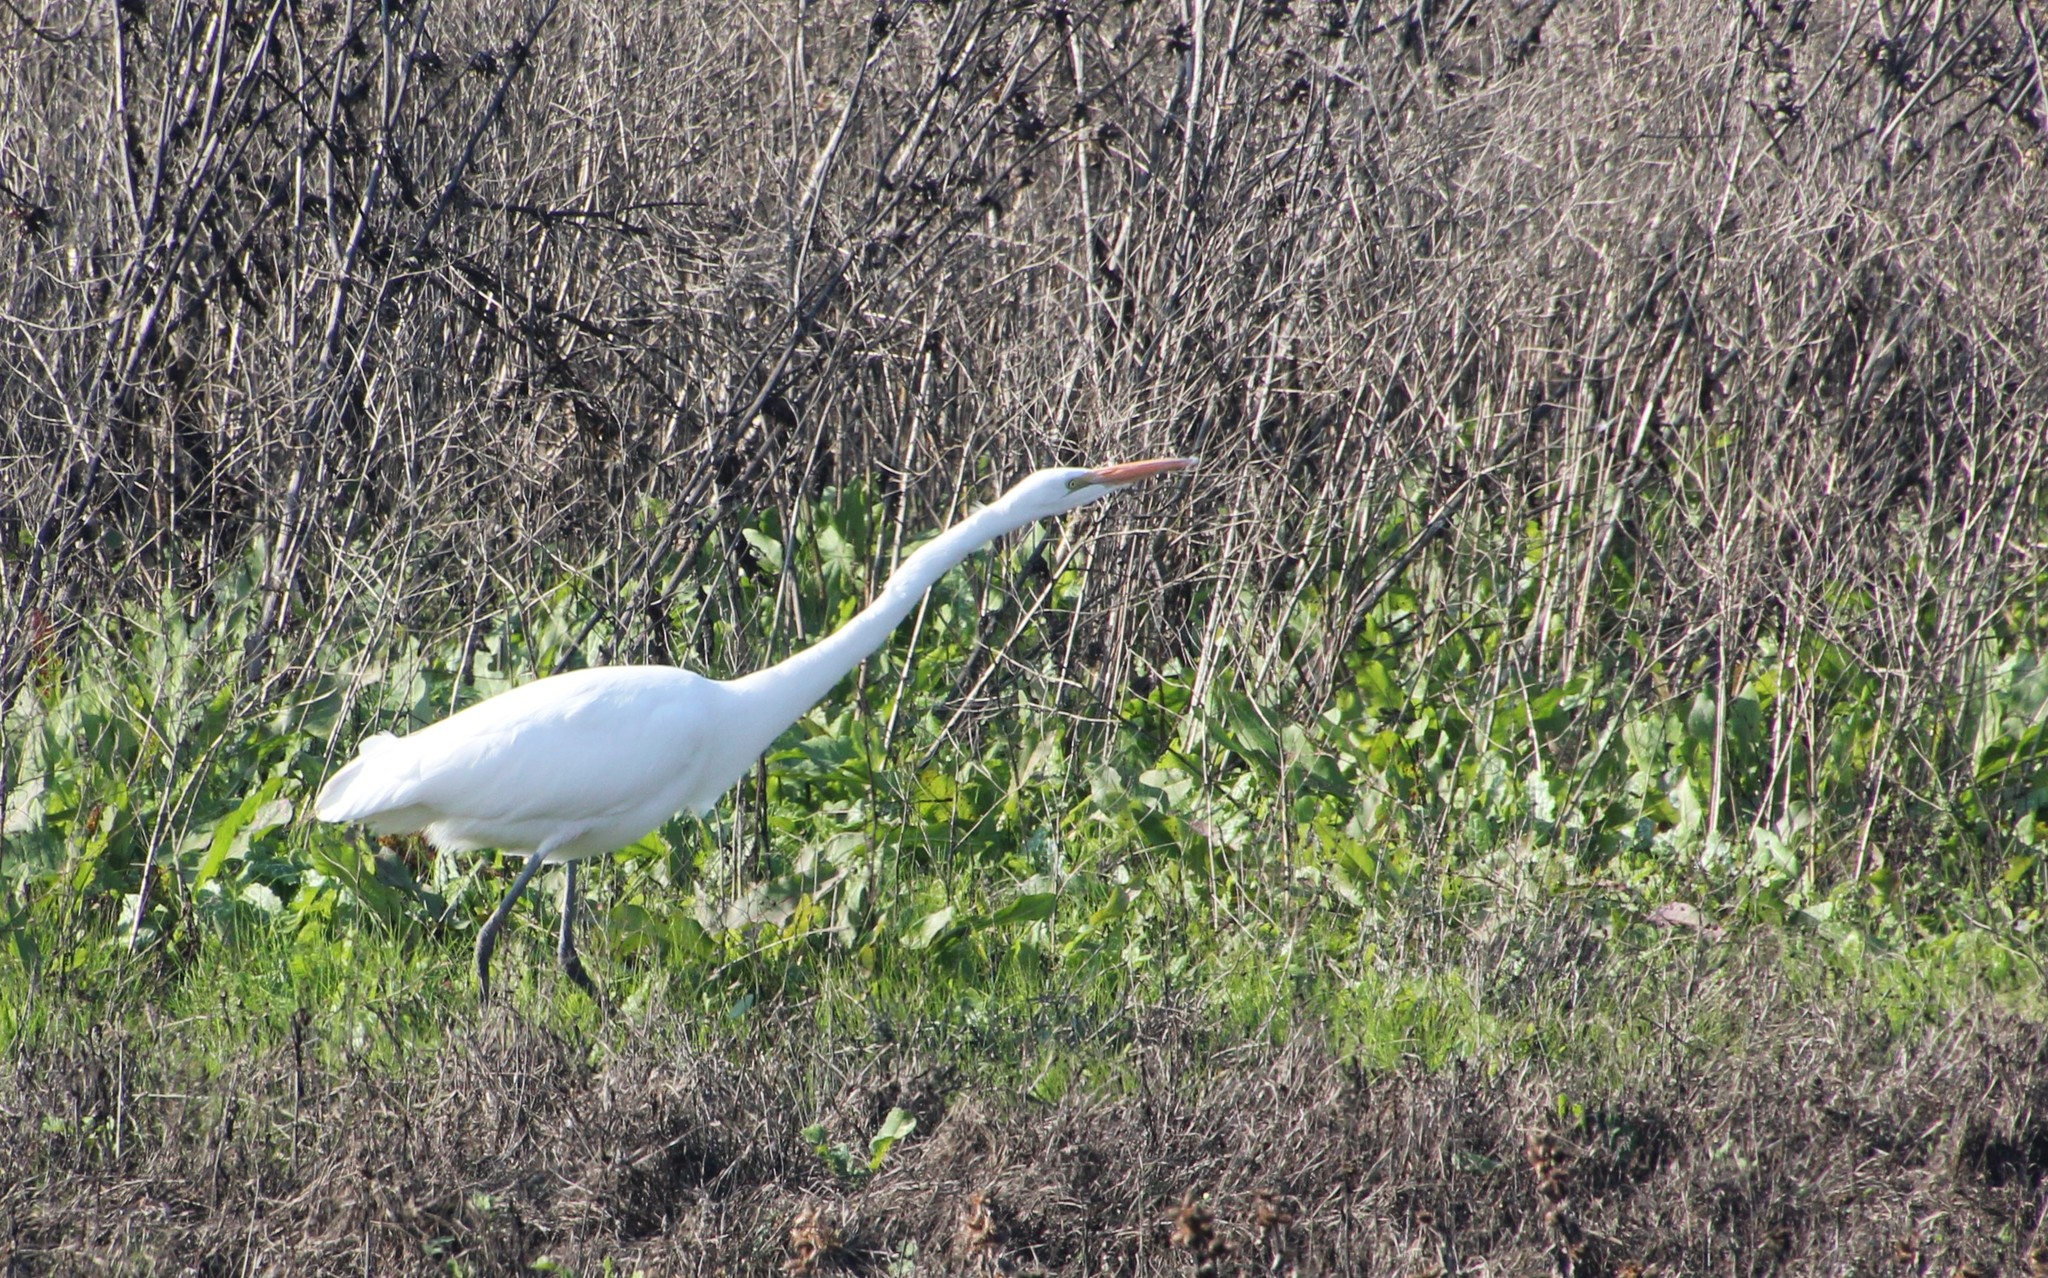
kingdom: Animalia
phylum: Chordata
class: Aves
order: Pelecaniformes
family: Ardeidae
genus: Ardea
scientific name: Ardea alba
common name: Great egret
